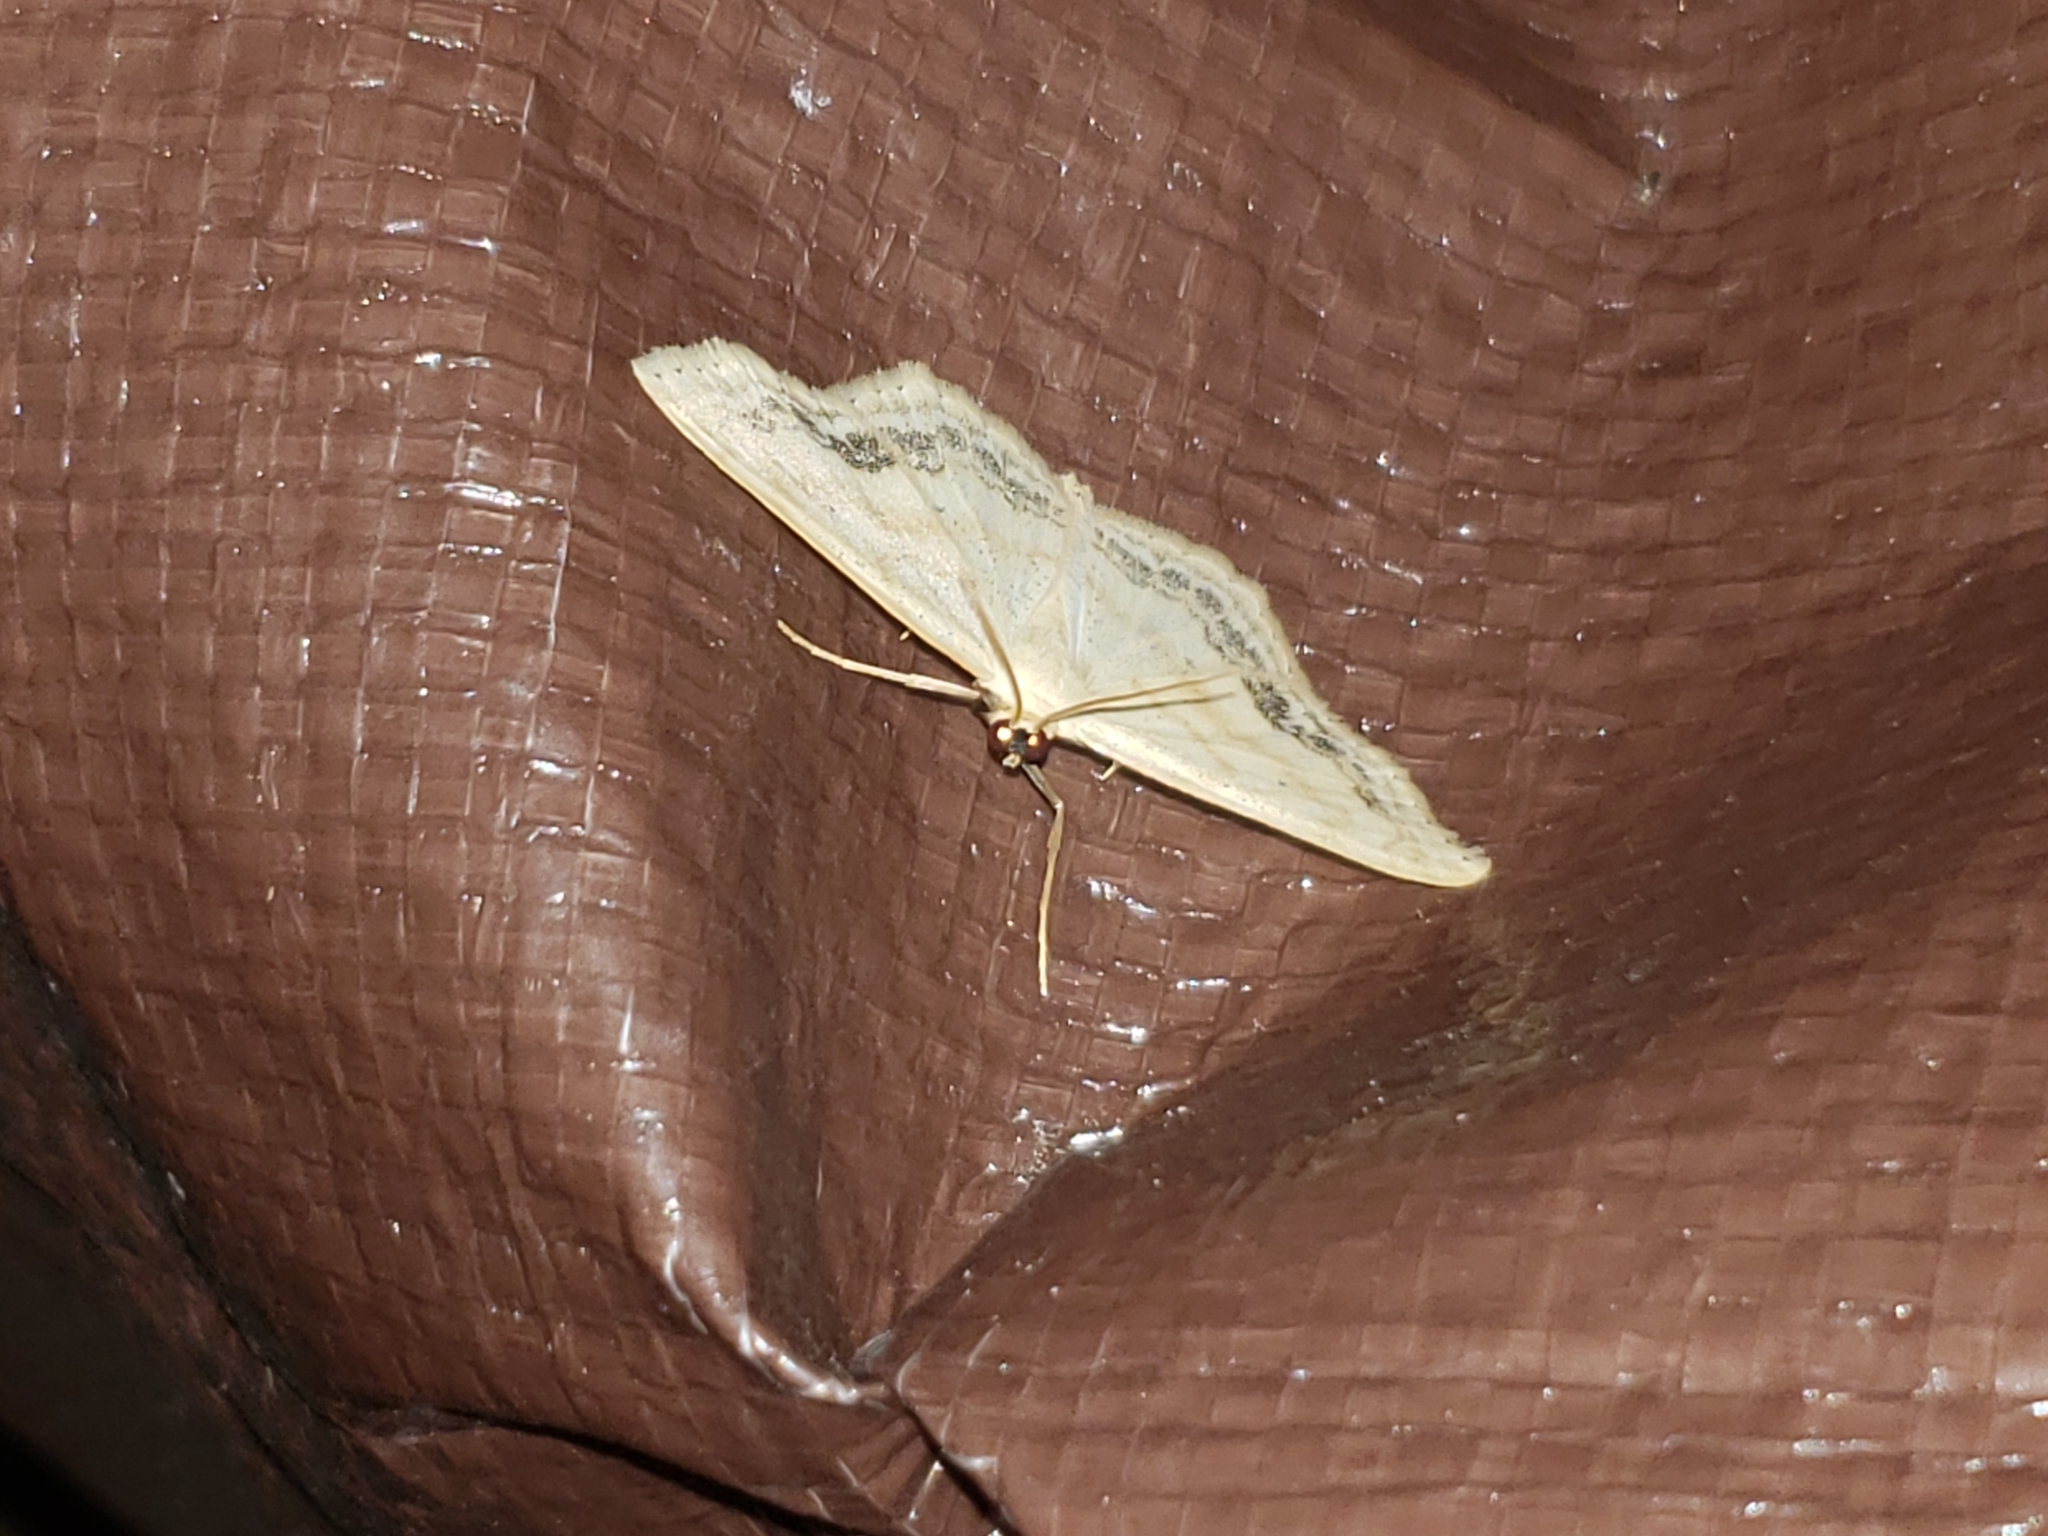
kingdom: Animalia
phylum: Arthropoda
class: Insecta
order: Lepidoptera
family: Geometridae
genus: Scopula
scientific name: Scopula limboundata
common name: Large lace border
